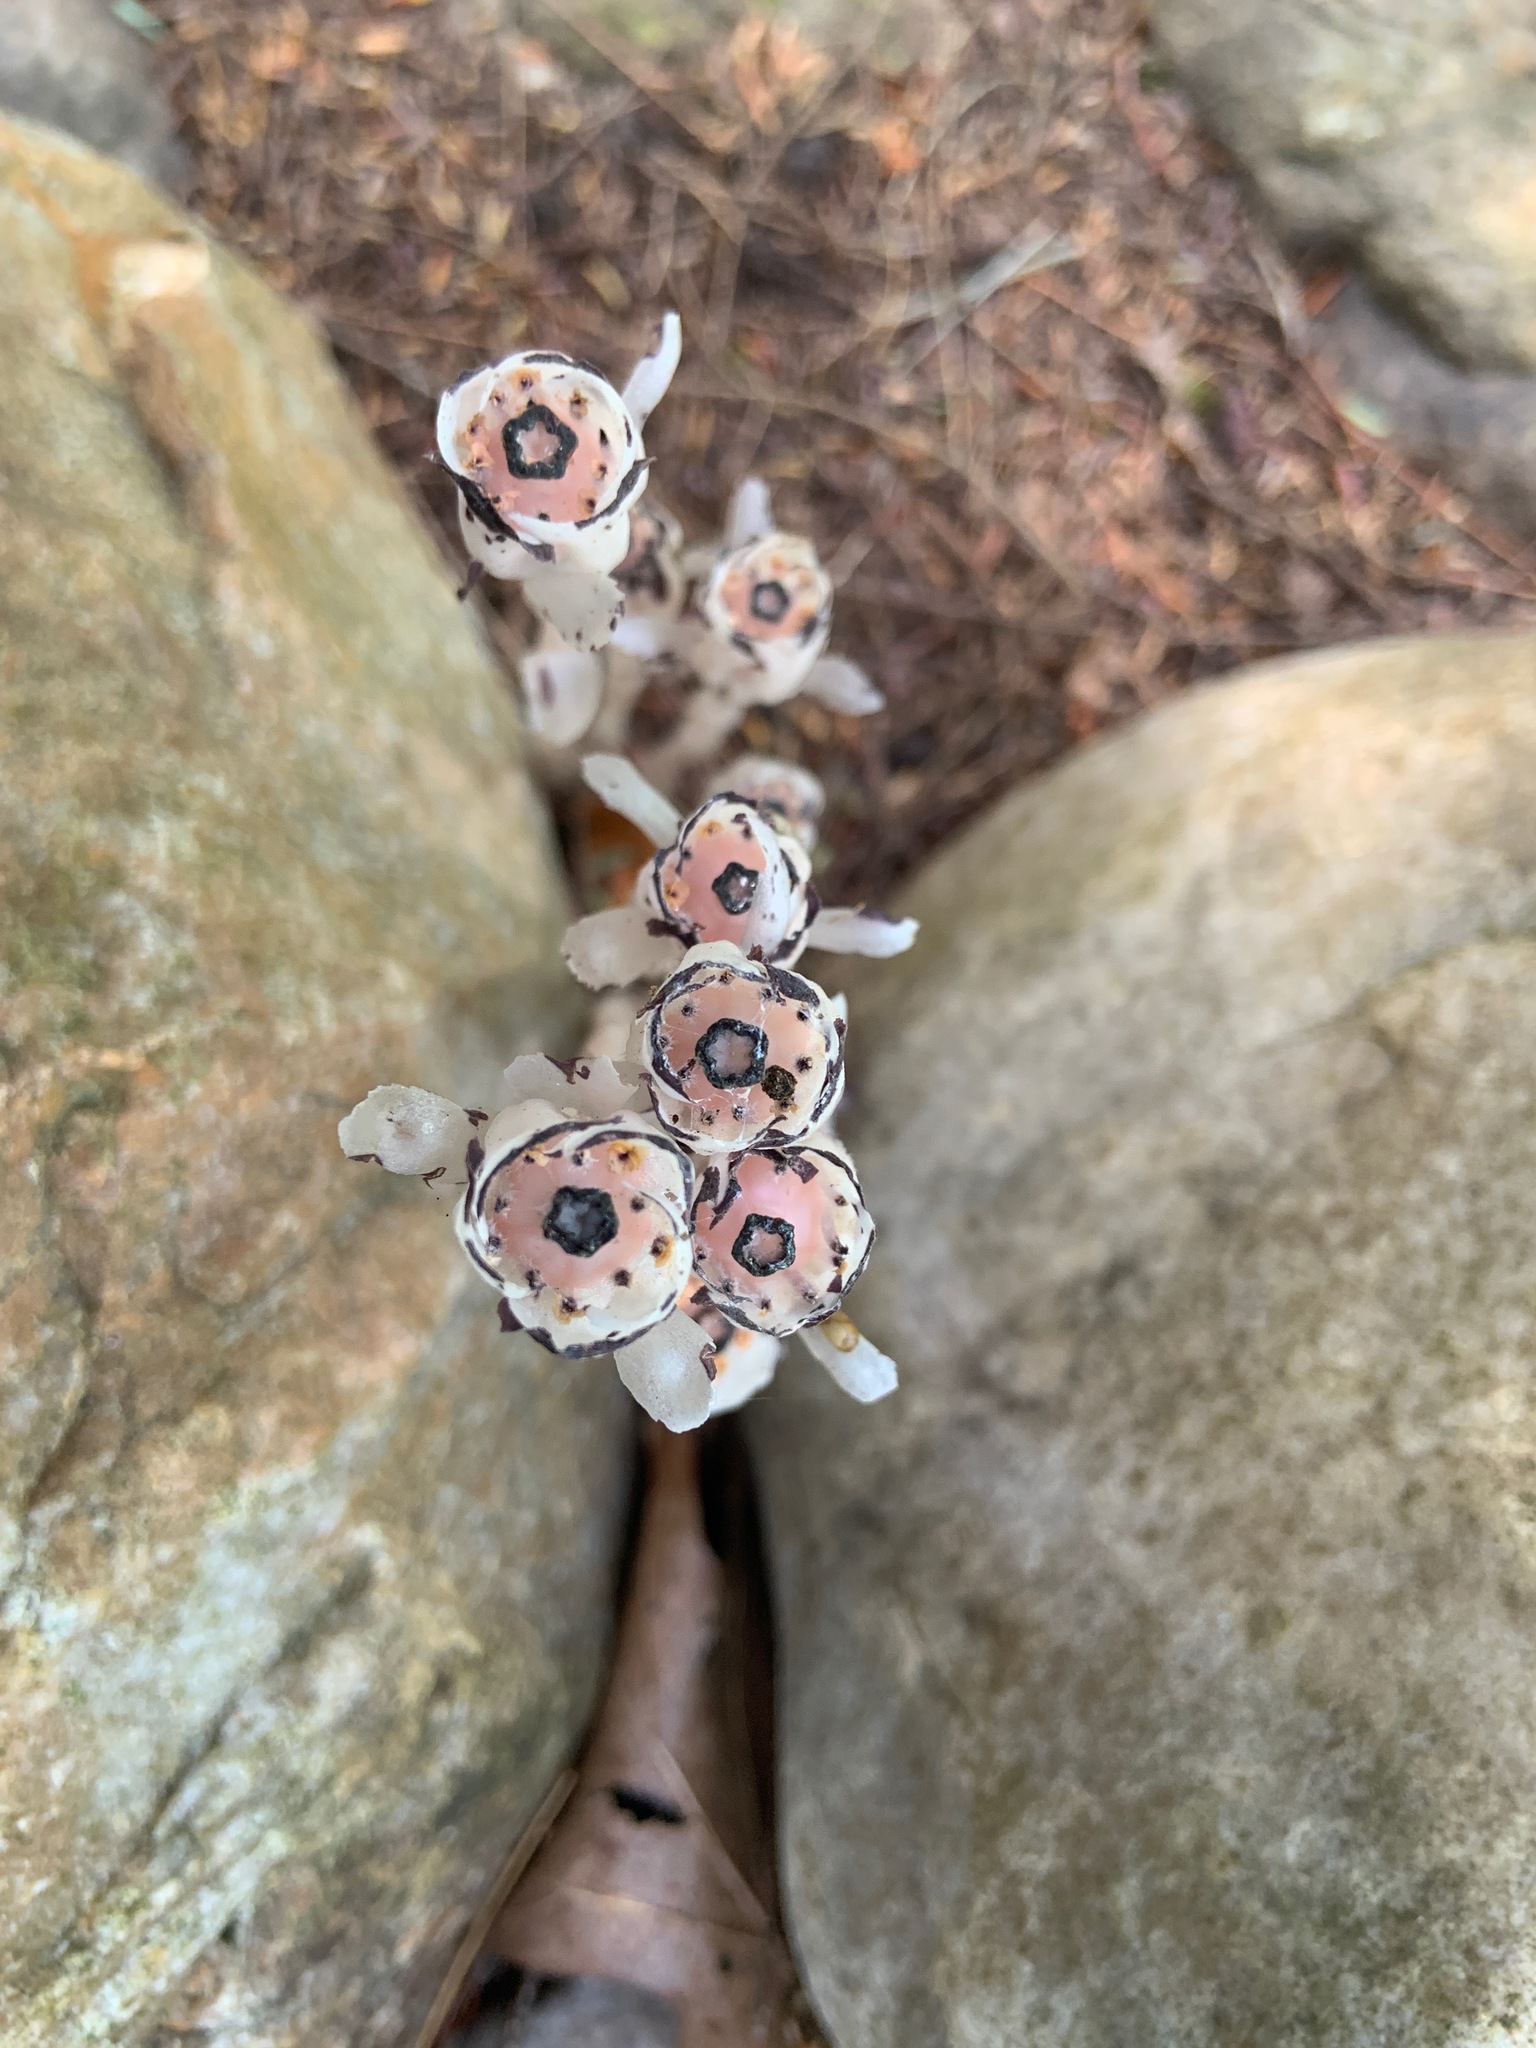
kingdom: Plantae
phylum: Tracheophyta
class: Magnoliopsida
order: Ericales
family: Ericaceae
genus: Monotropa
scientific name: Monotropa uniflora
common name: Convulsion root
